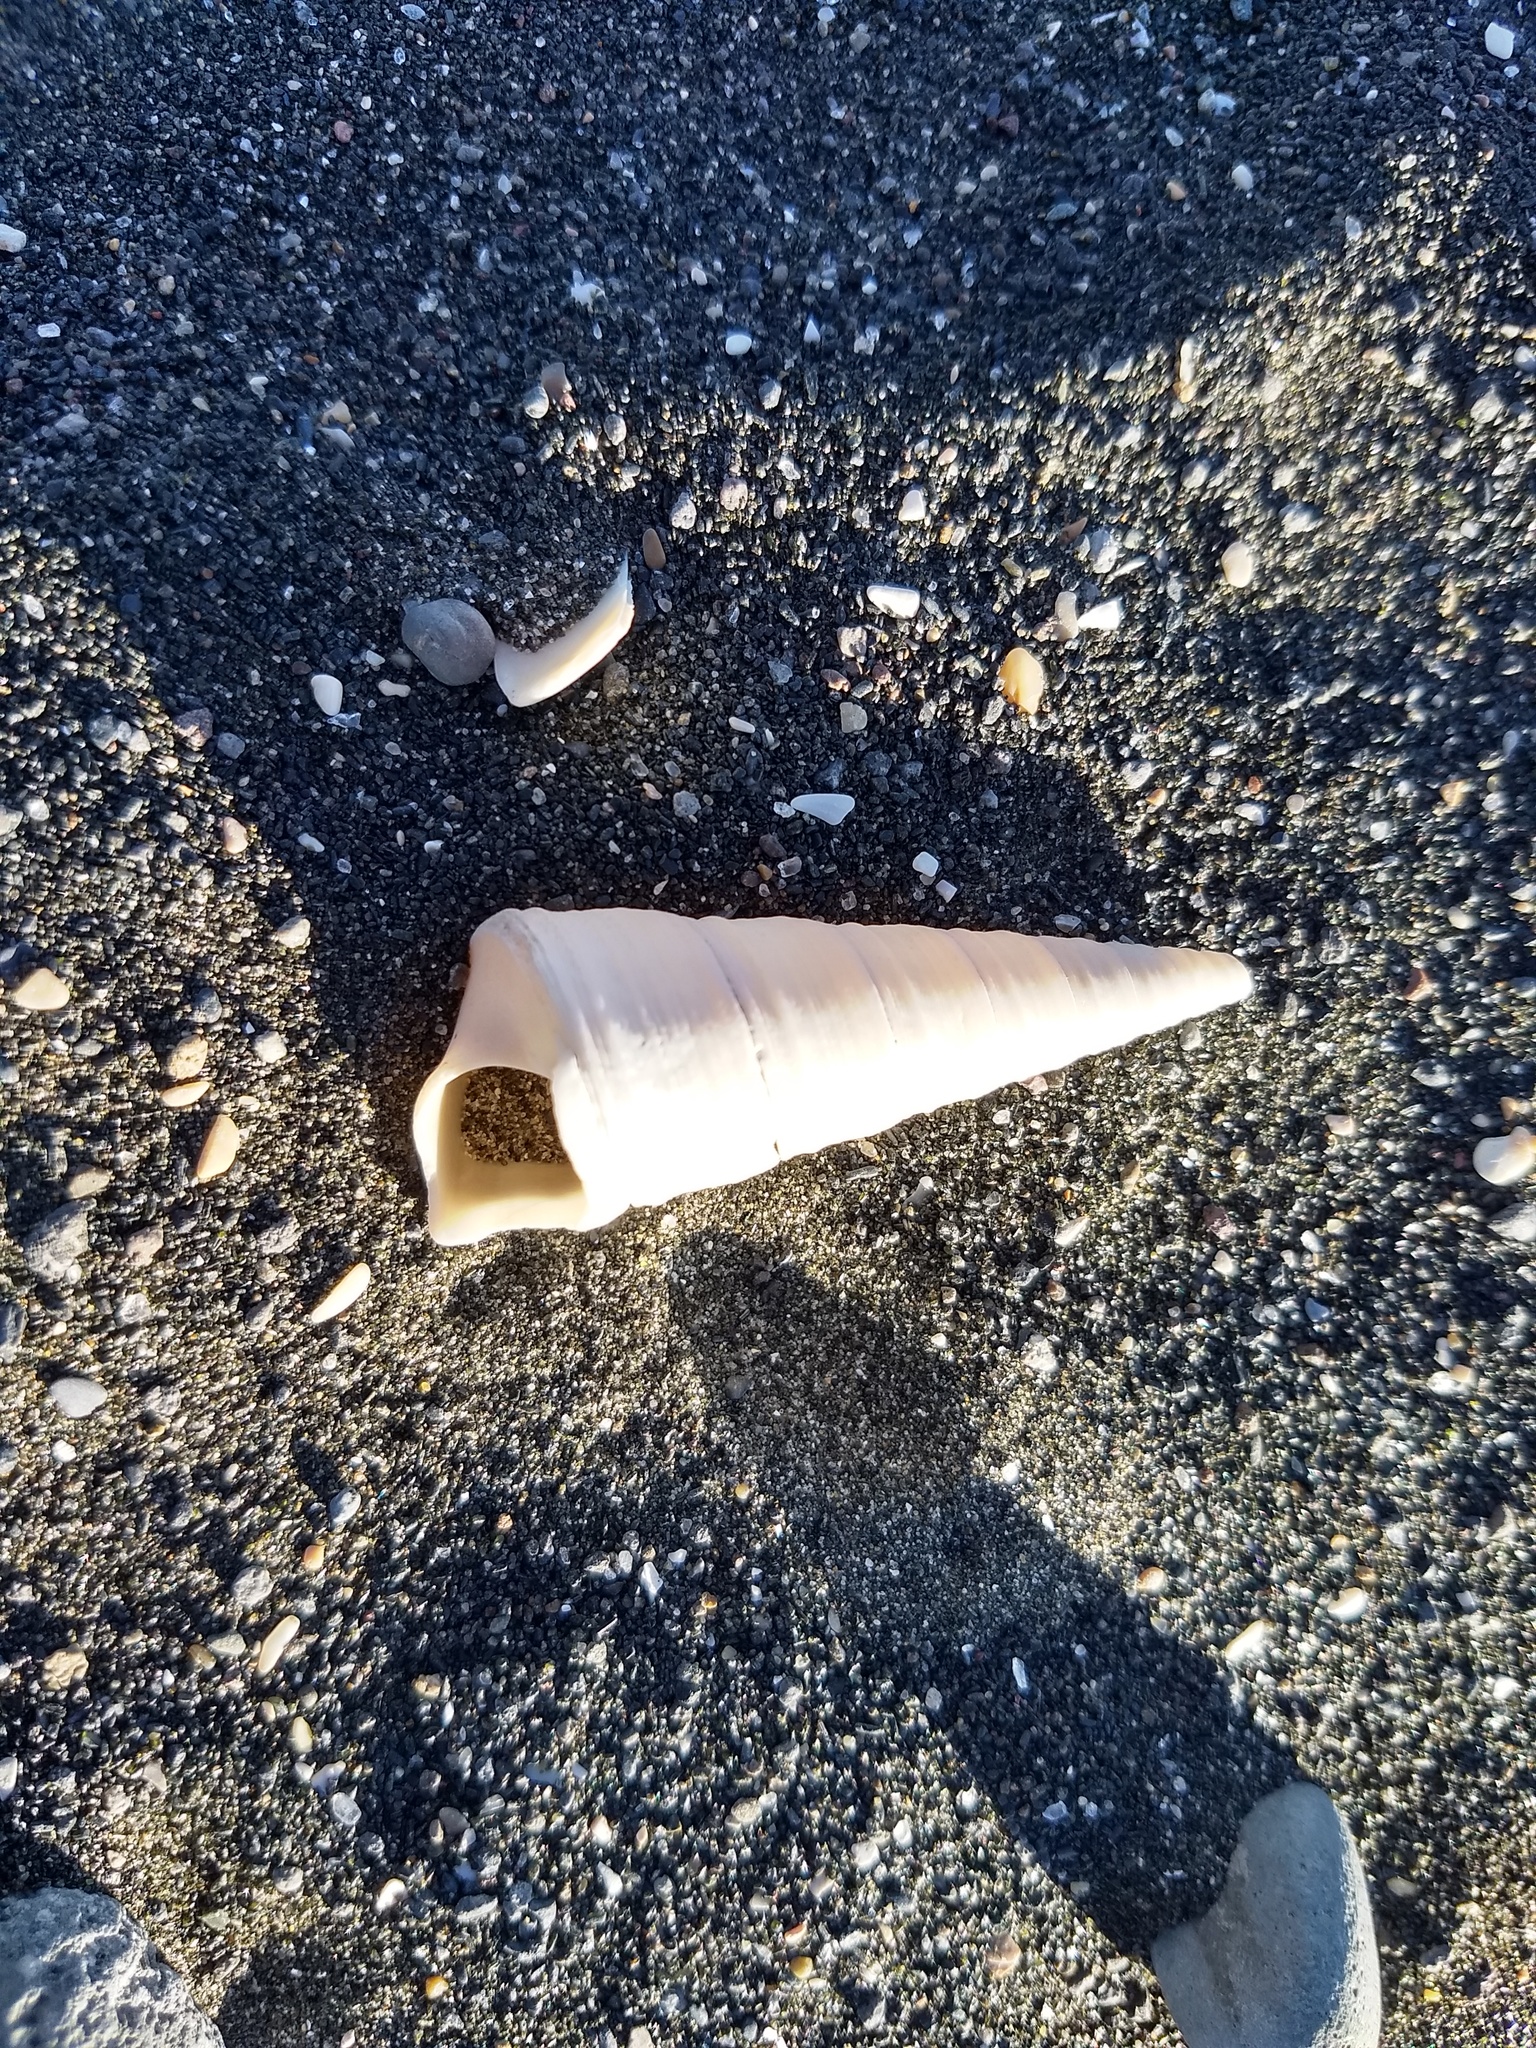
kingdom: Animalia
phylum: Mollusca
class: Gastropoda
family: Turritellidae
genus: Maoricolpus
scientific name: Maoricolpus roseus
